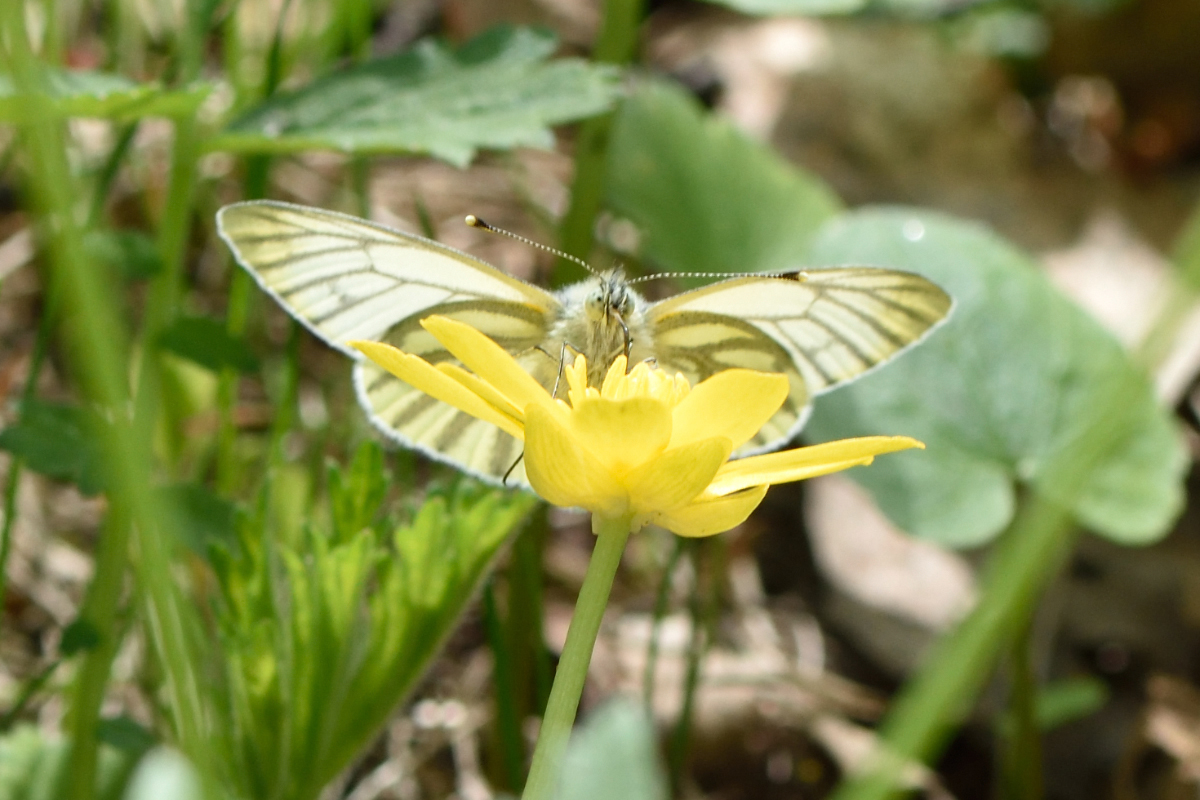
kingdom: Animalia
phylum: Arthropoda
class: Insecta
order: Lepidoptera
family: Pieridae
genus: Pieris
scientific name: Pieris napi
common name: Green-veined white
